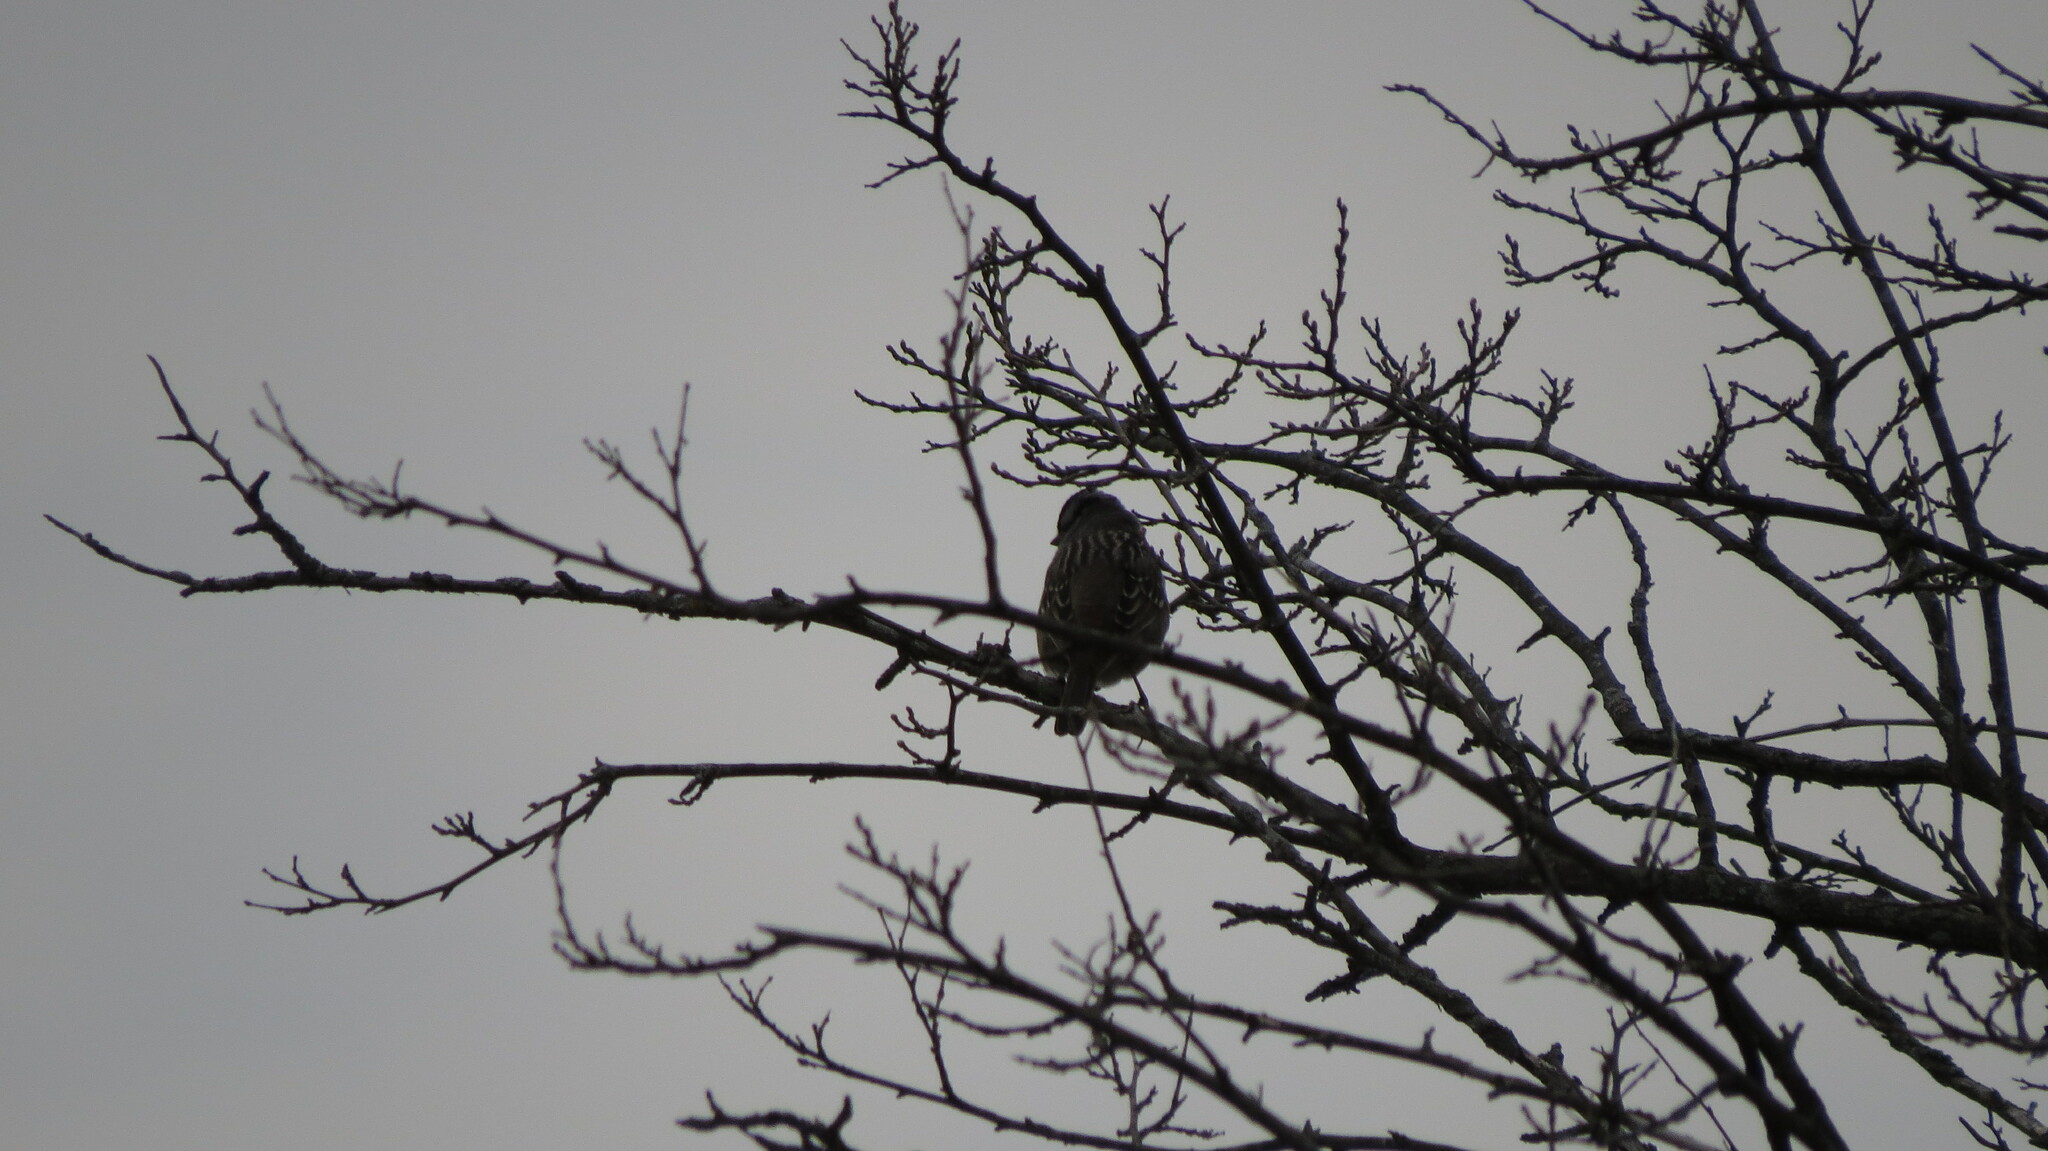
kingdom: Animalia
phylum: Chordata
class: Aves
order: Passeriformes
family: Passerellidae
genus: Zonotrichia
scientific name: Zonotrichia leucophrys
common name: White-crowned sparrow
